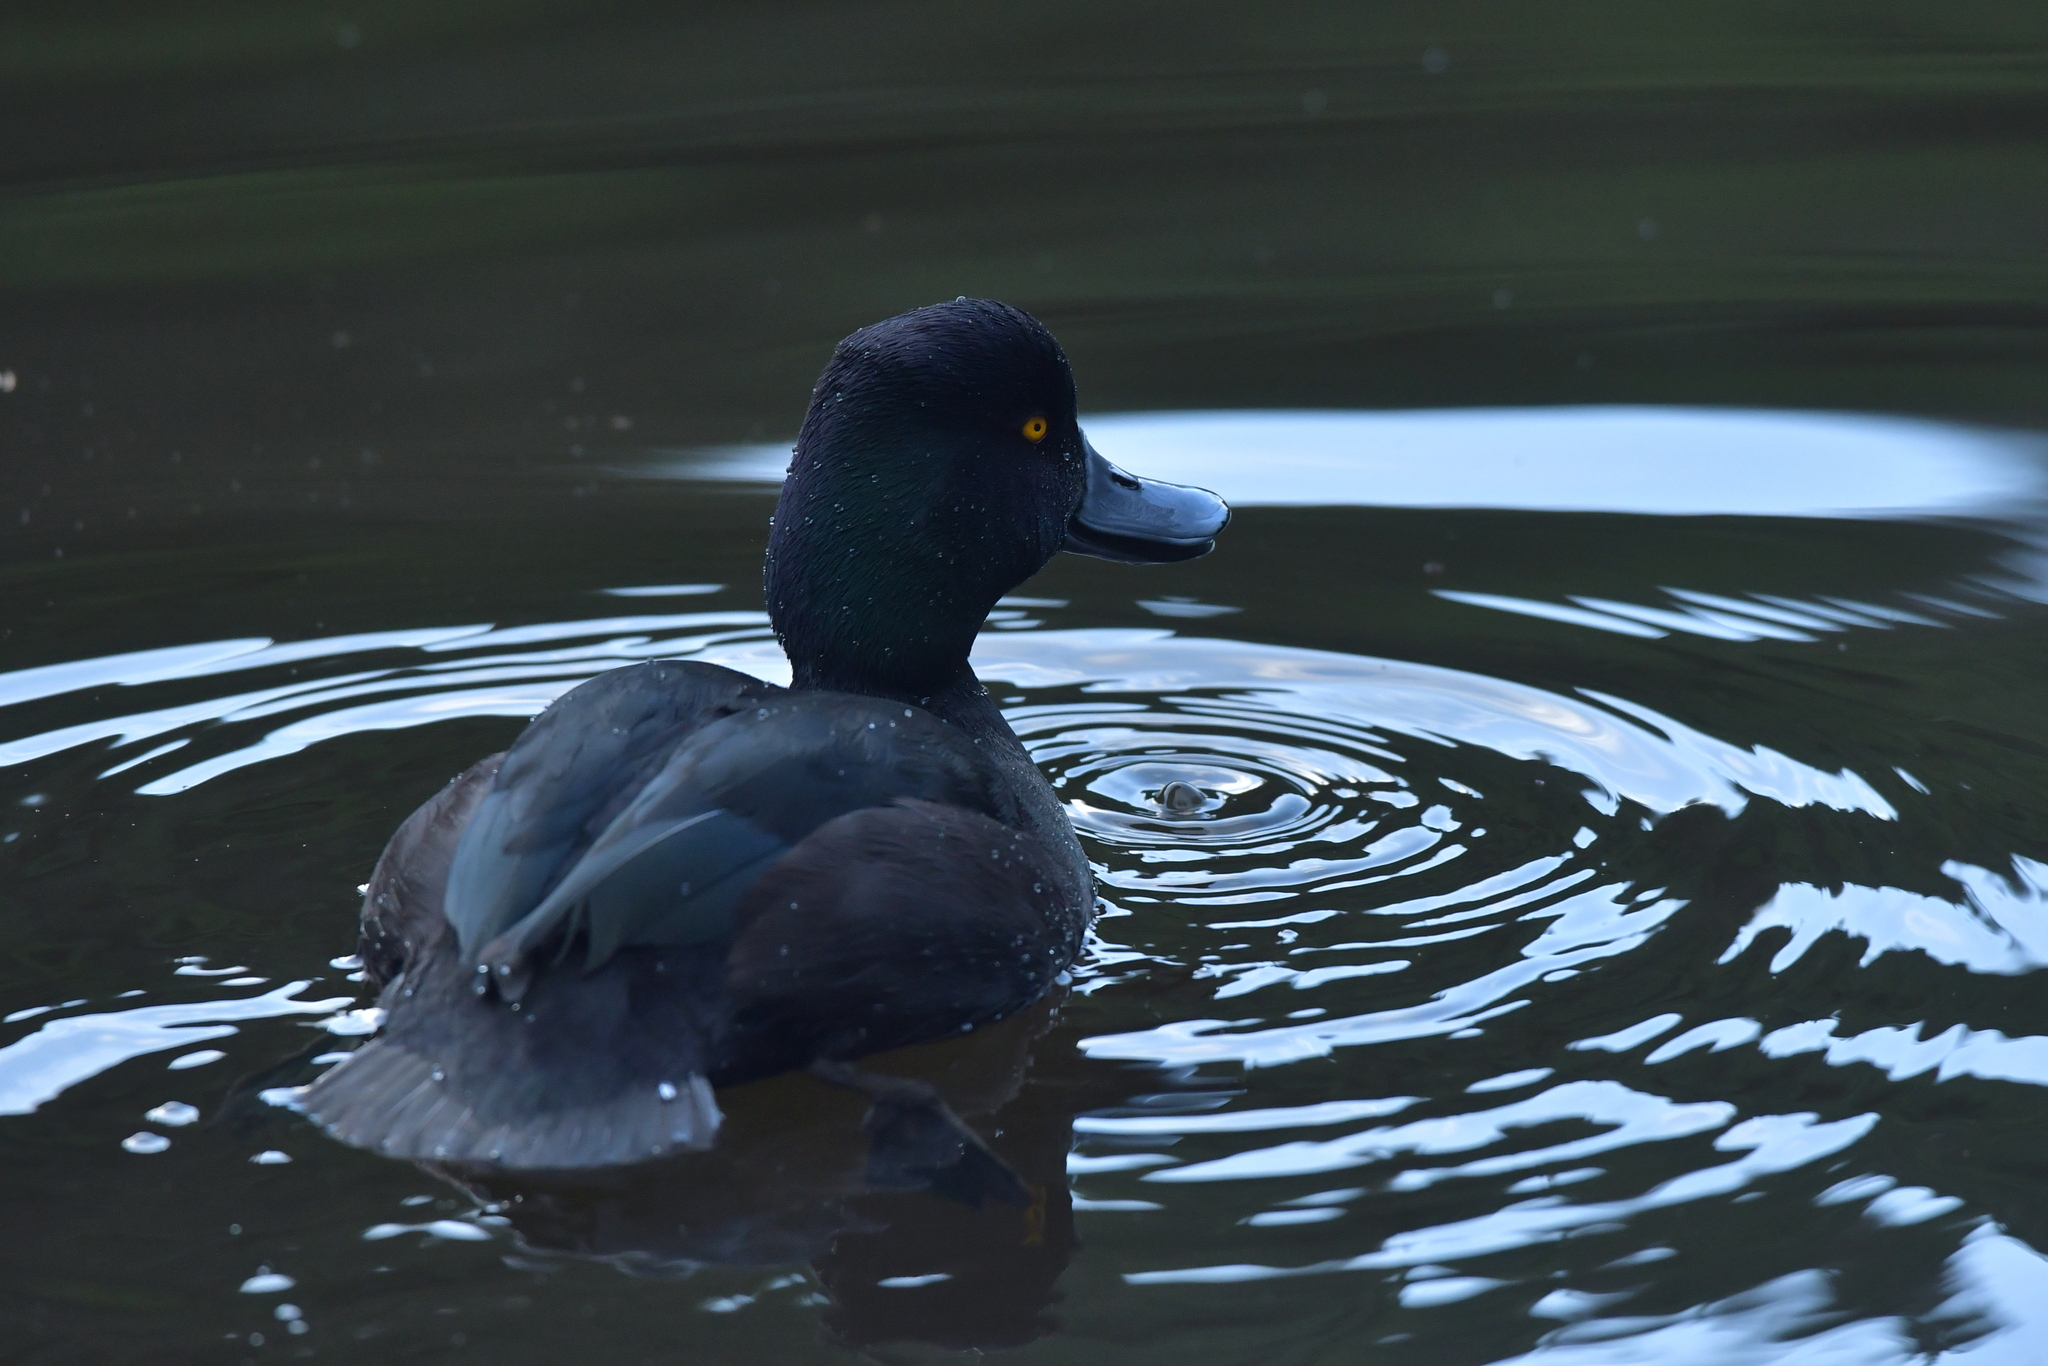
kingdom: Animalia
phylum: Chordata
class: Aves
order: Anseriformes
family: Anatidae
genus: Aythya
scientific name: Aythya novaeseelandiae
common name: New zealand scaup
